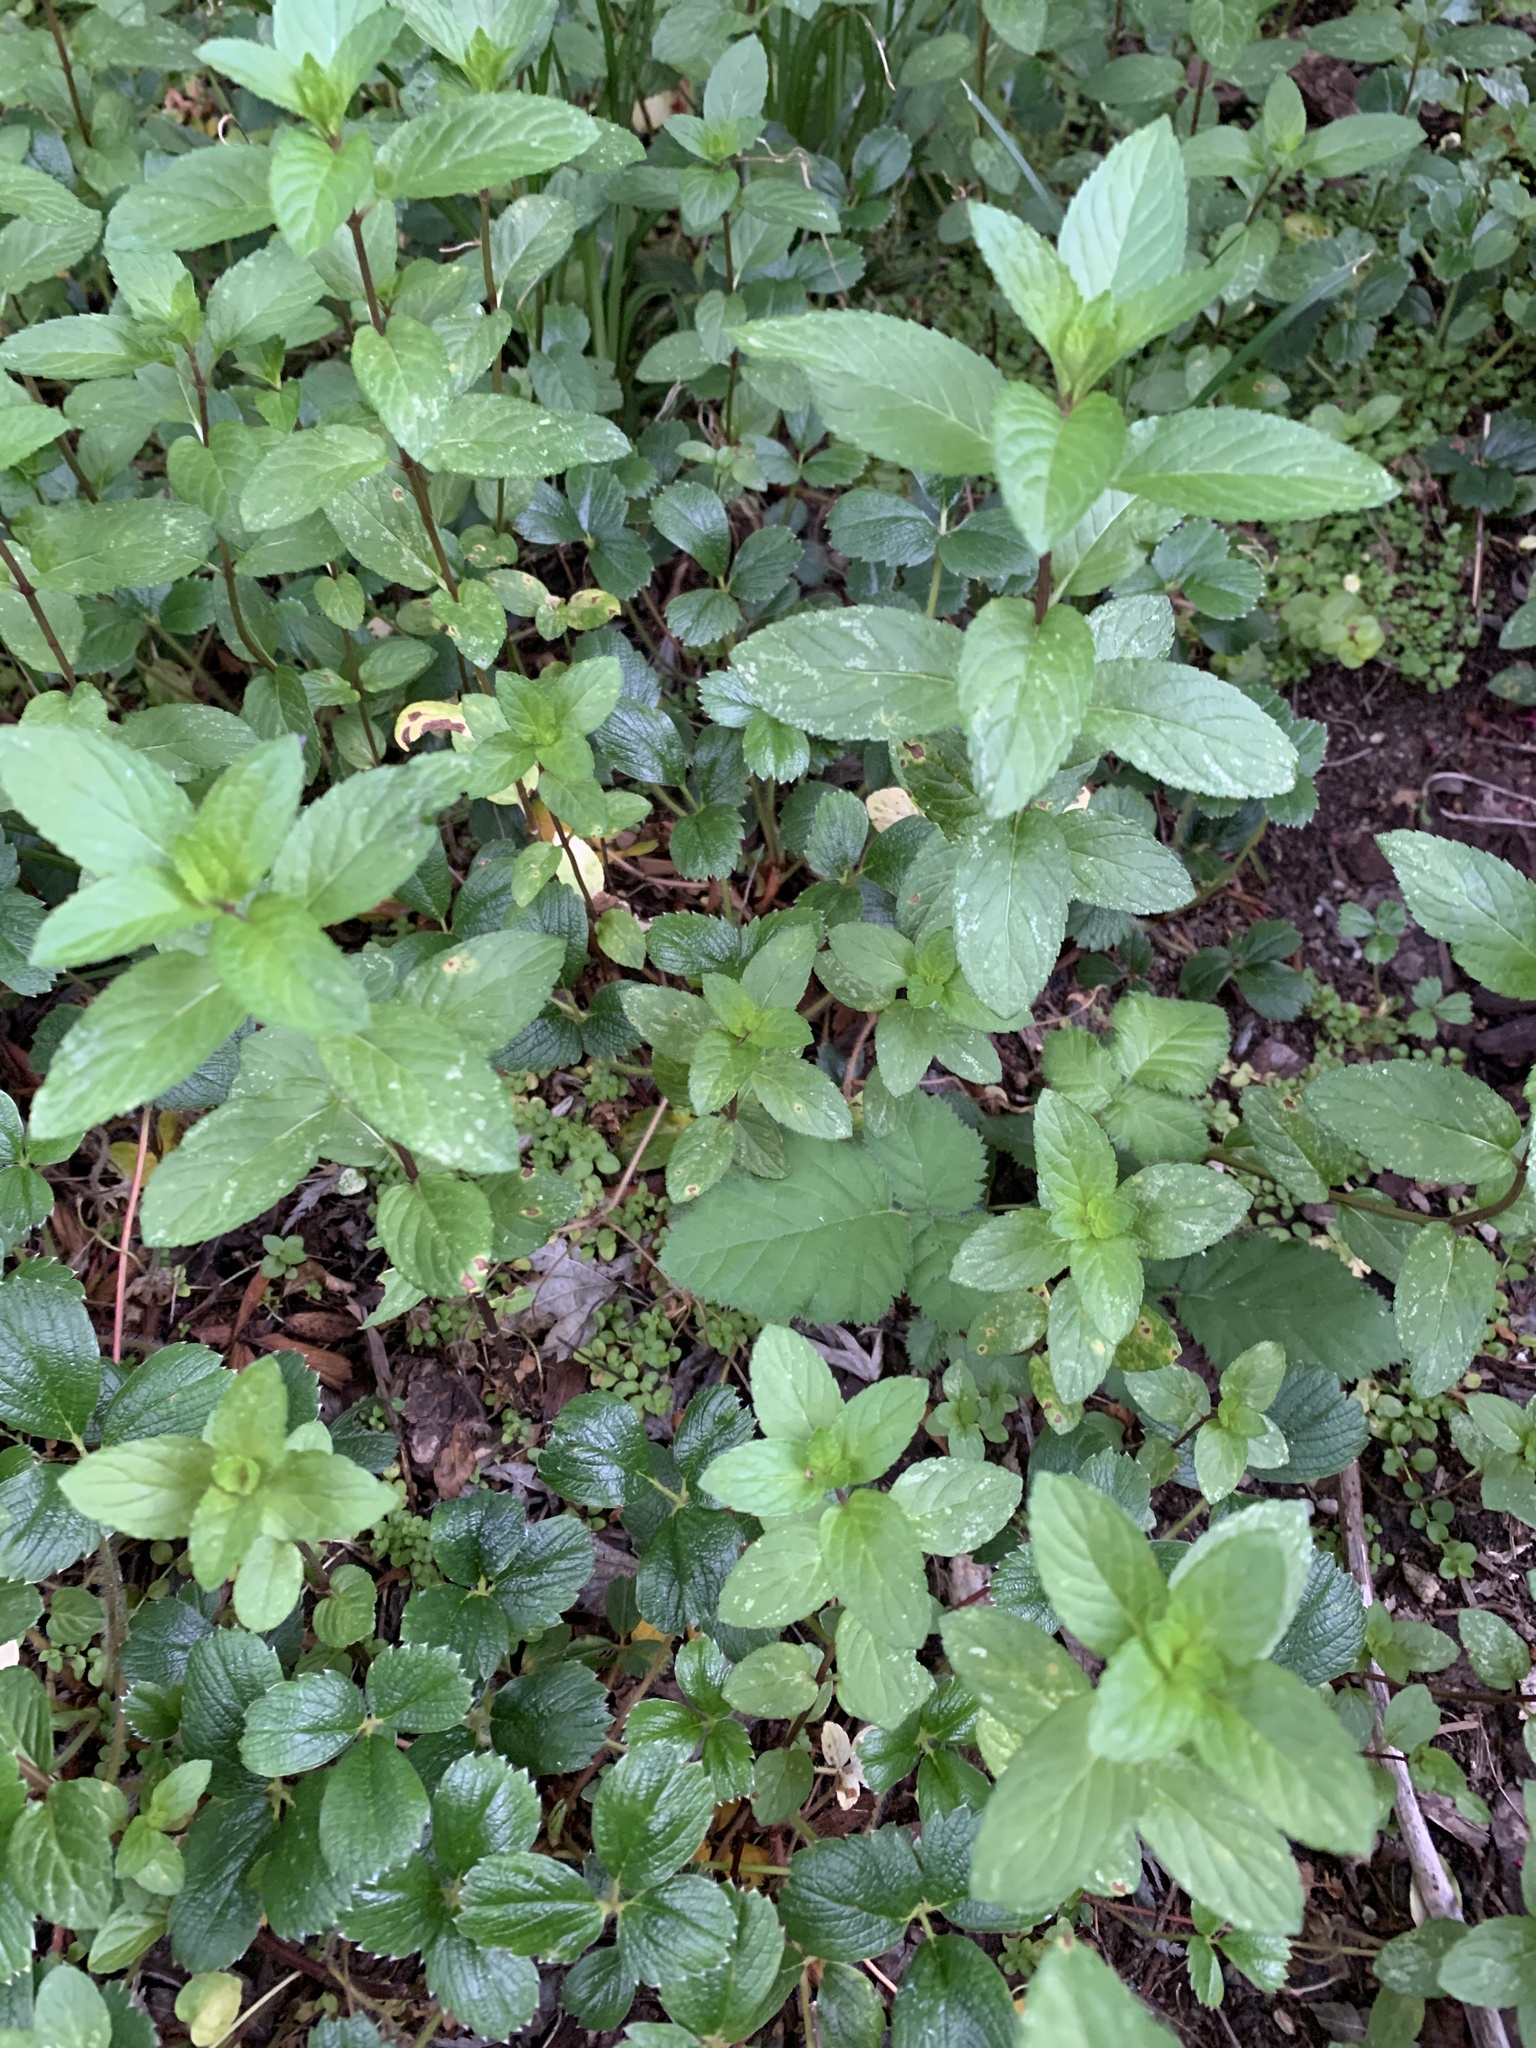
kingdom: Plantae
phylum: Tracheophyta
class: Magnoliopsida
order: Lamiales
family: Lamiaceae
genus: Mentha
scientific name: Mentha piperita
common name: Peppermint
